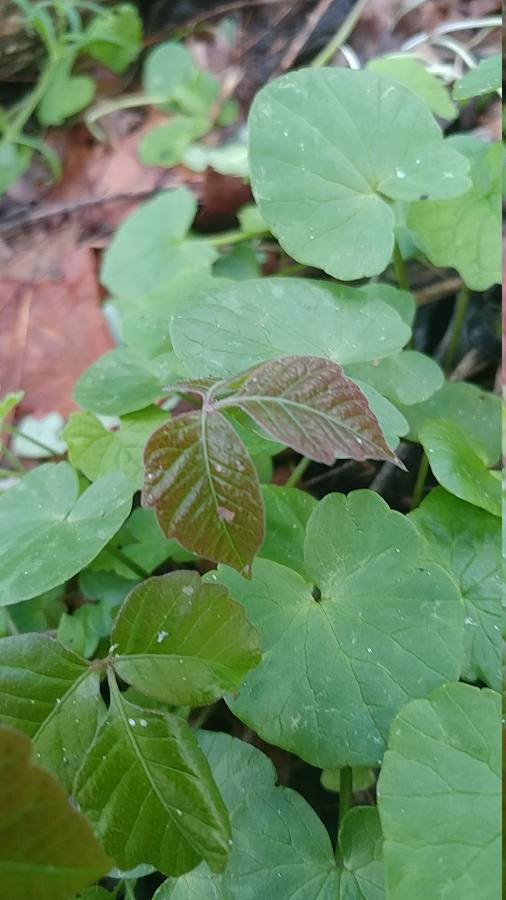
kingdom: Plantae
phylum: Tracheophyta
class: Magnoliopsida
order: Sapindales
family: Anacardiaceae
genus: Toxicodendron
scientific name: Toxicodendron radicans
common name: Poison ivy
